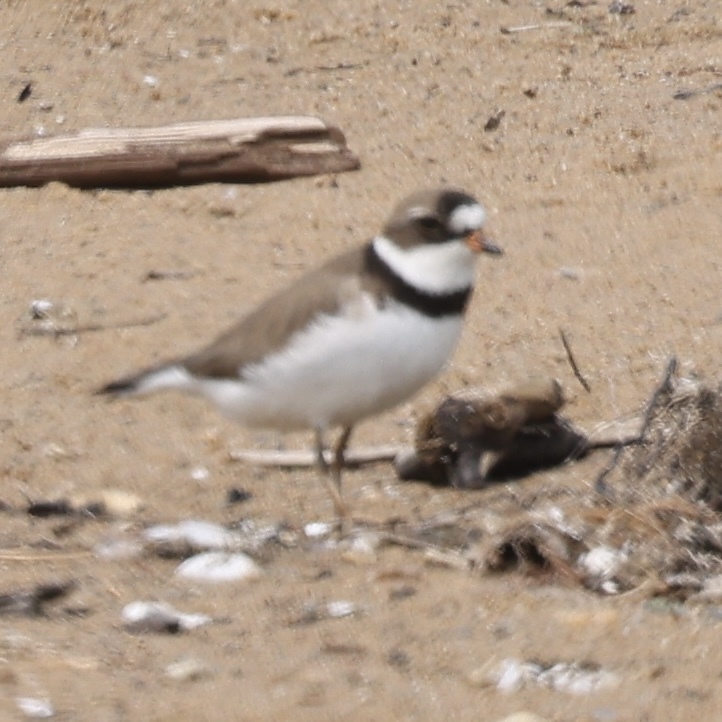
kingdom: Animalia
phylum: Chordata
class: Aves
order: Charadriiformes
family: Charadriidae
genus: Charadrius
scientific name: Charadrius semipalmatus
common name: Semipalmated plover
